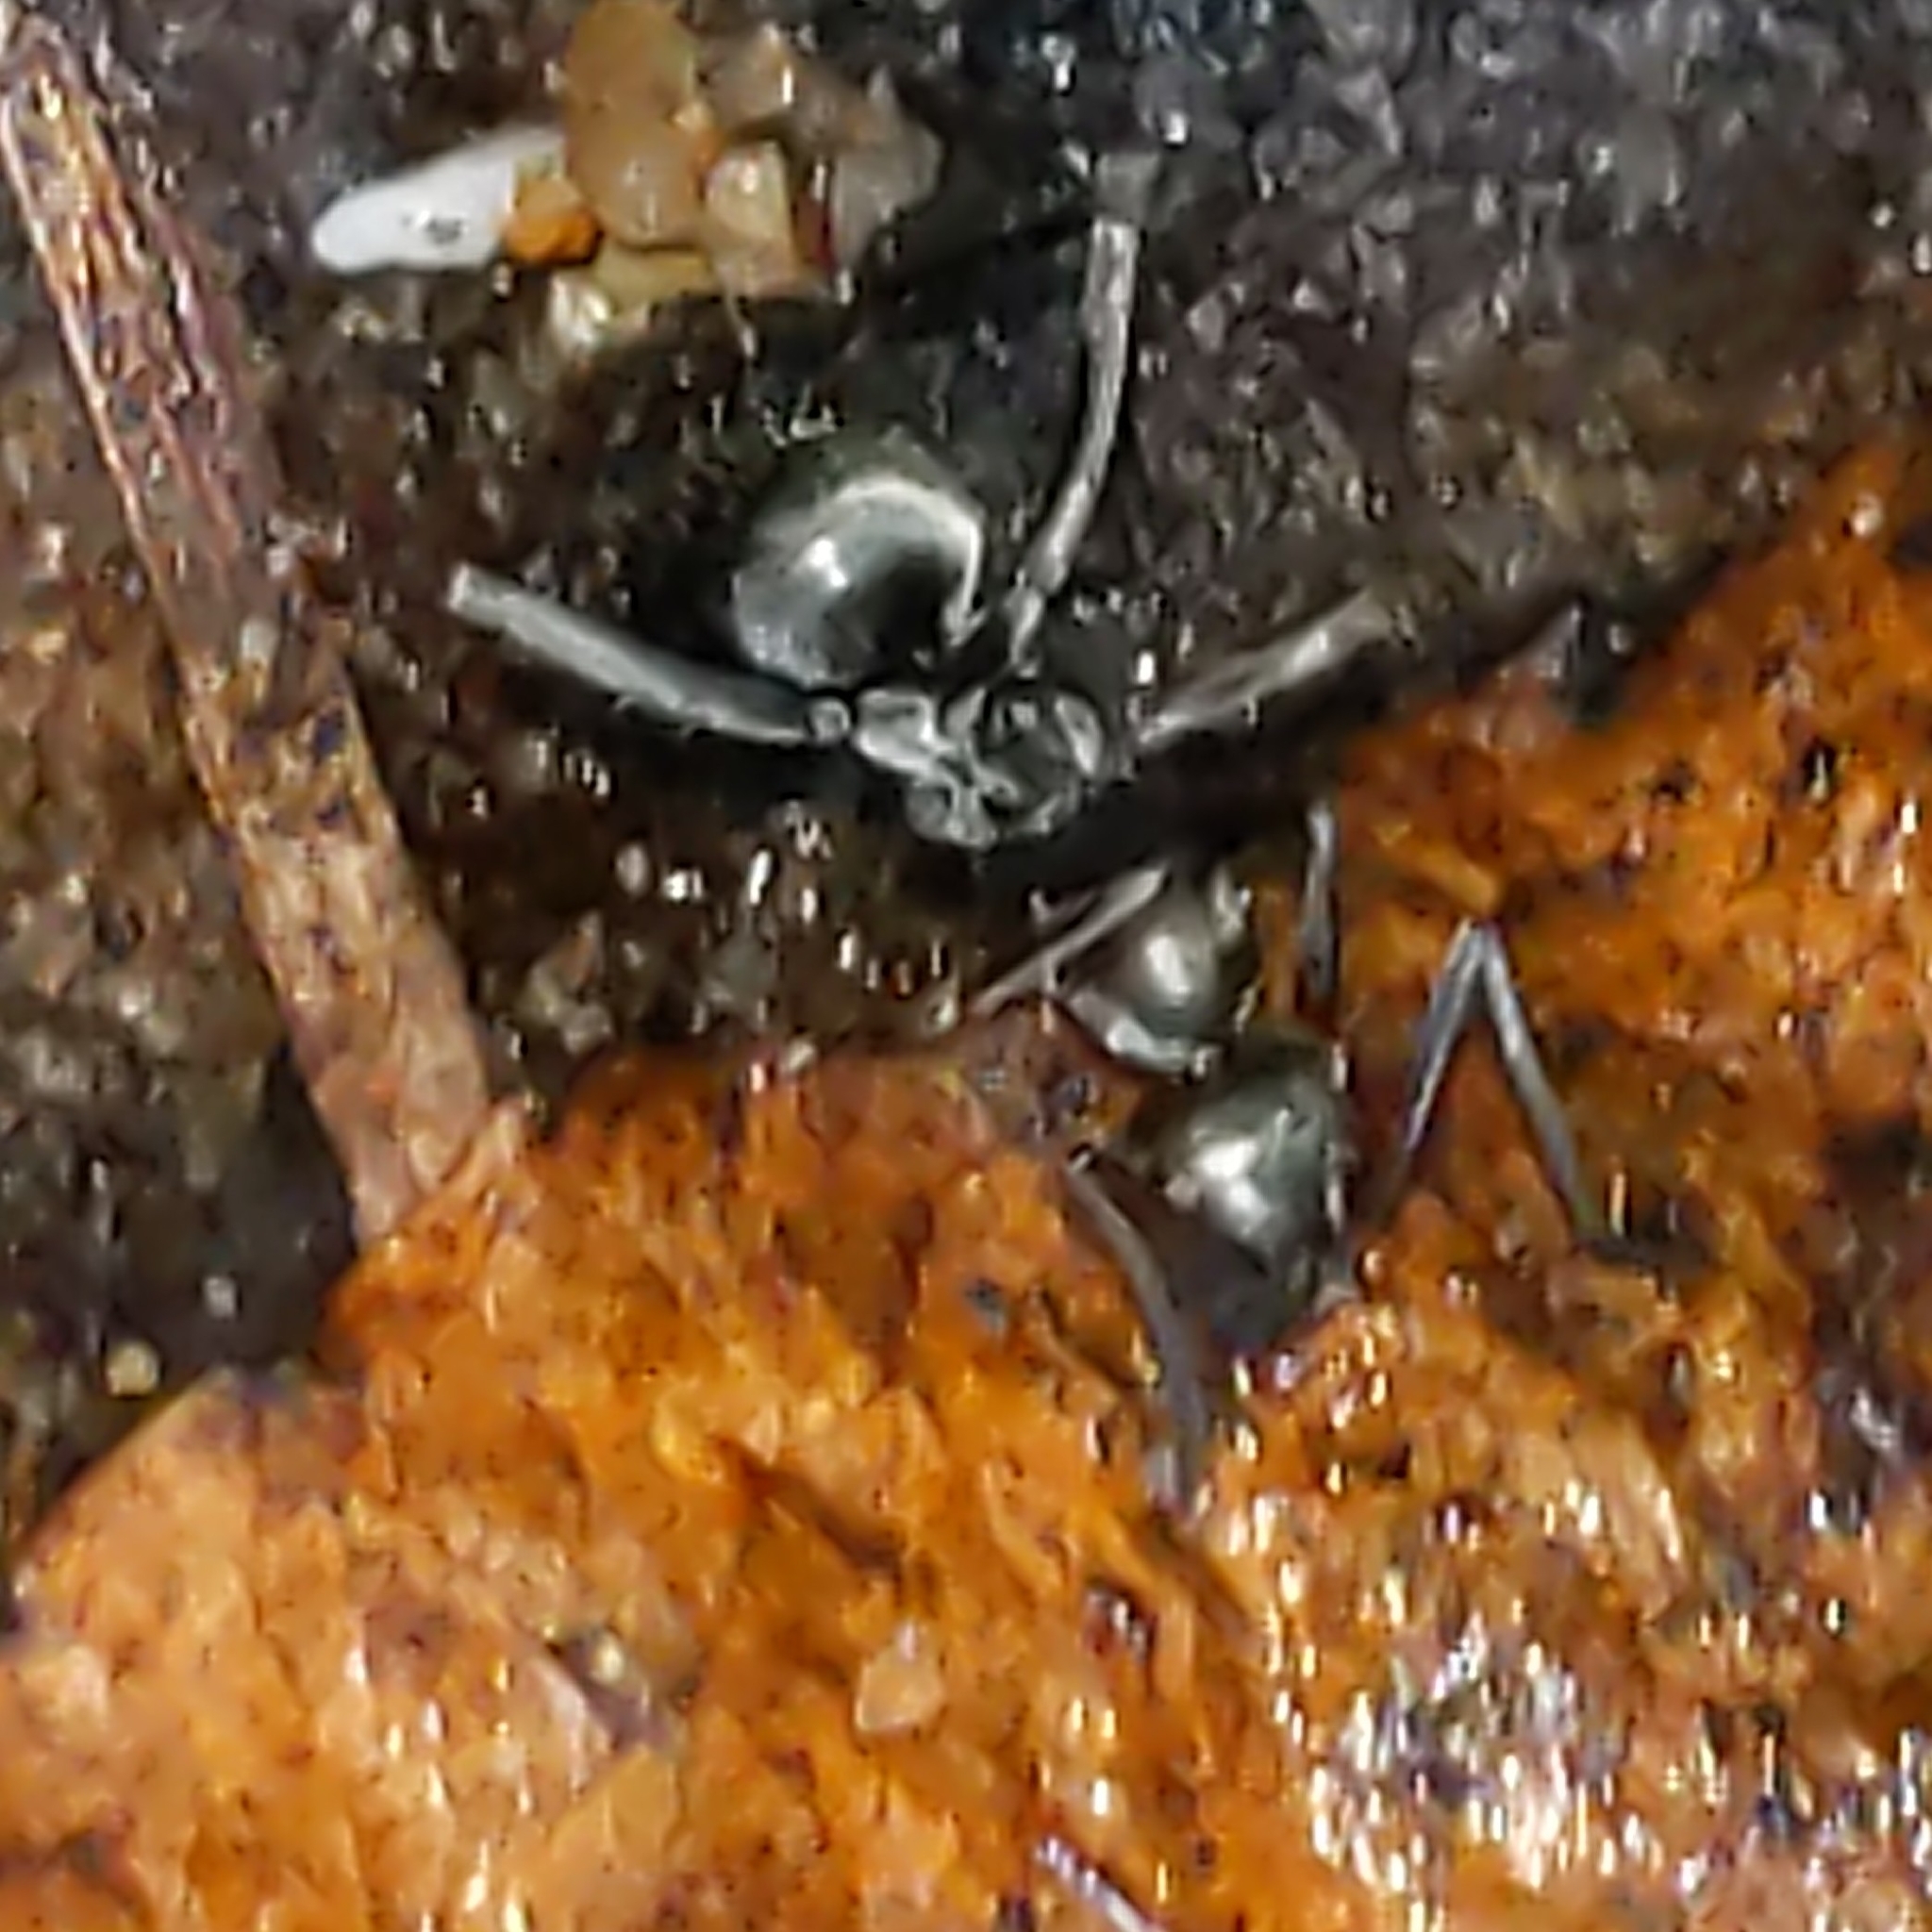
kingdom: Animalia
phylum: Arthropoda
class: Insecta
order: Hymenoptera
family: Formicidae
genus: Formica
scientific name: Formica
